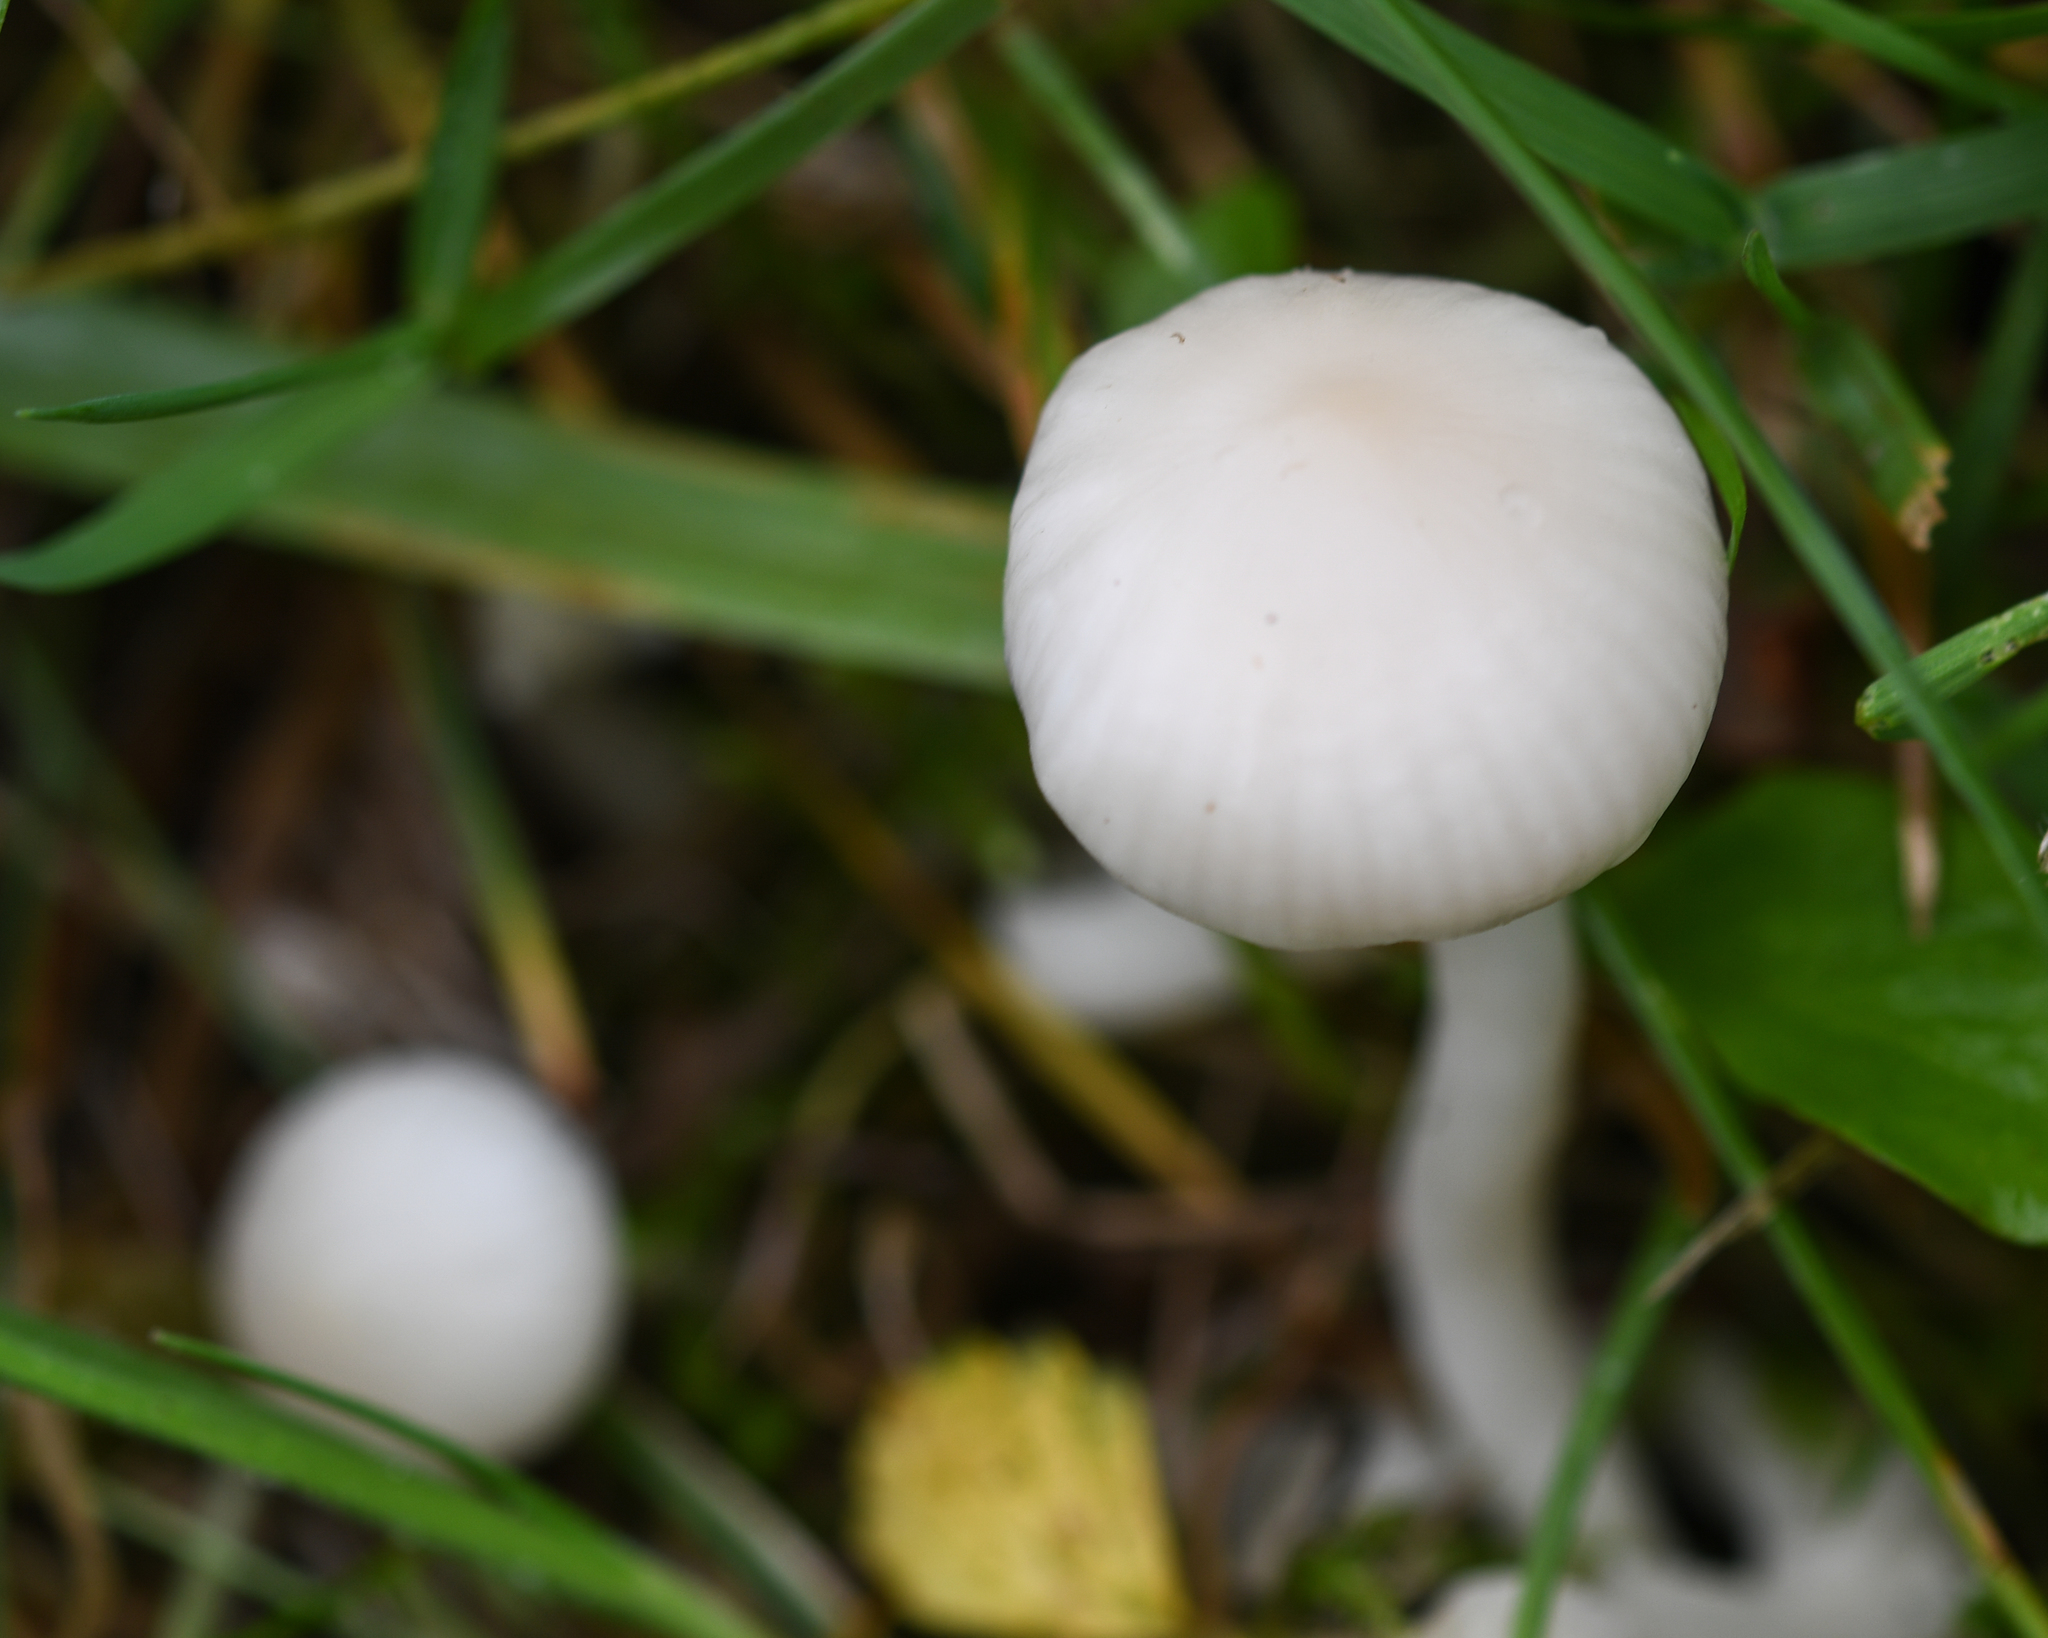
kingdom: Fungi
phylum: Basidiomycota
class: Agaricomycetes
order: Agaricales
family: Hygrophoraceae
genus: Cuphophyllus
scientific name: Cuphophyllus virgineus
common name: Snowy waxcap
